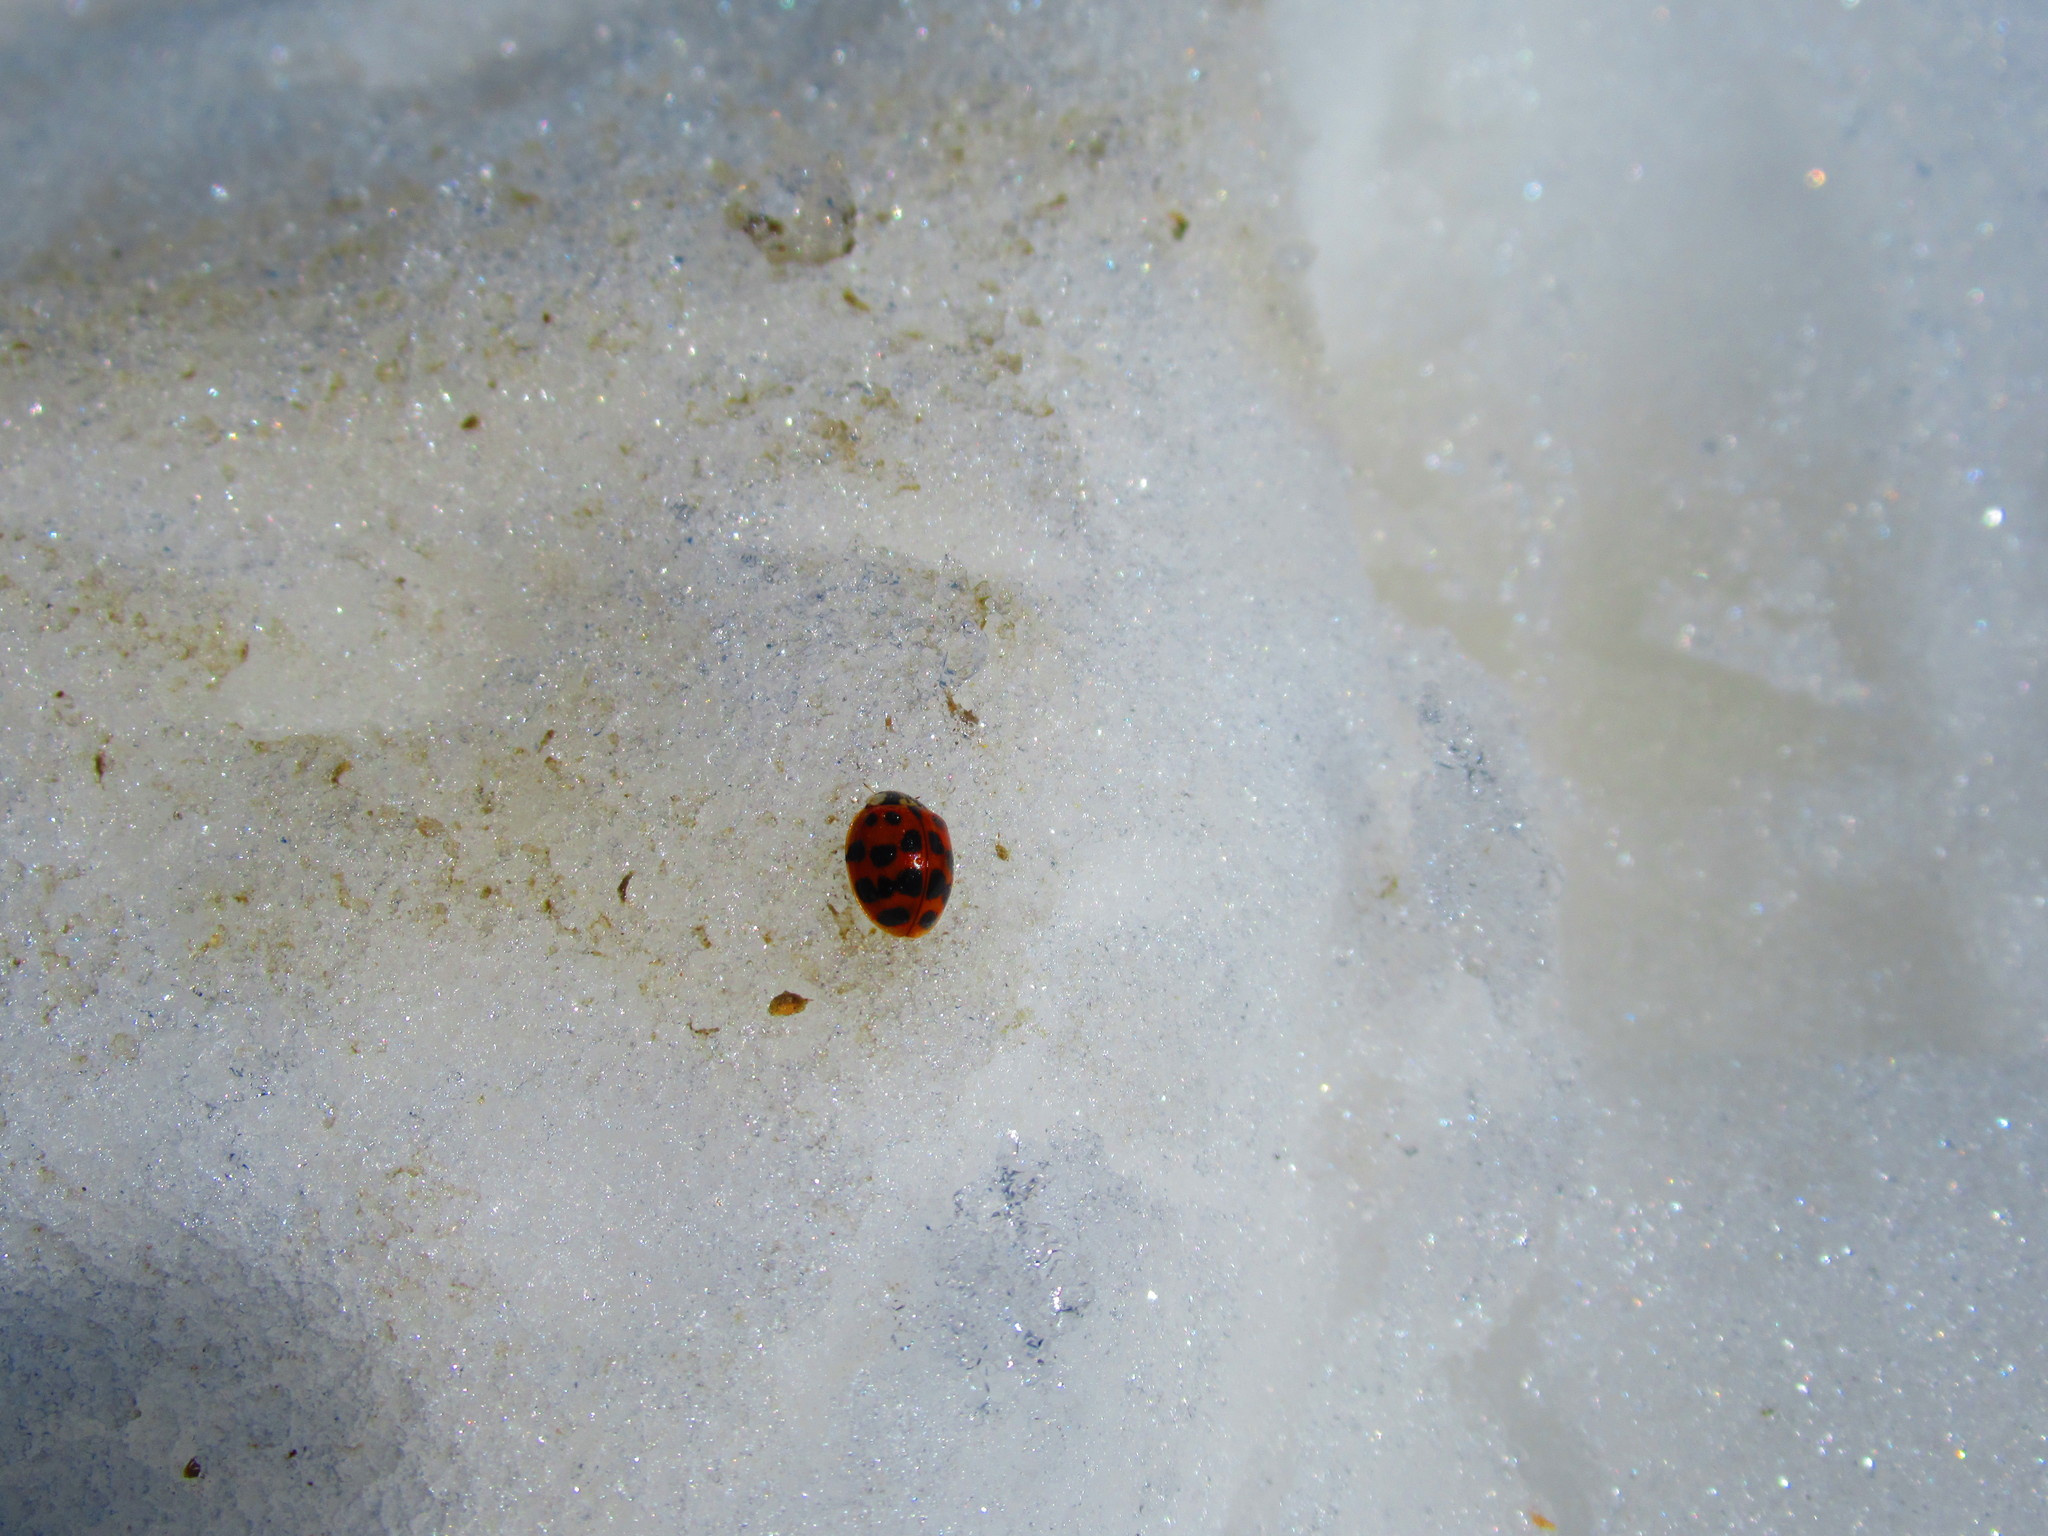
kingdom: Animalia
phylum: Arthropoda
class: Insecta
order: Coleoptera
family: Coccinellidae
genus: Harmonia
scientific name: Harmonia axyridis
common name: Harlequin ladybird
